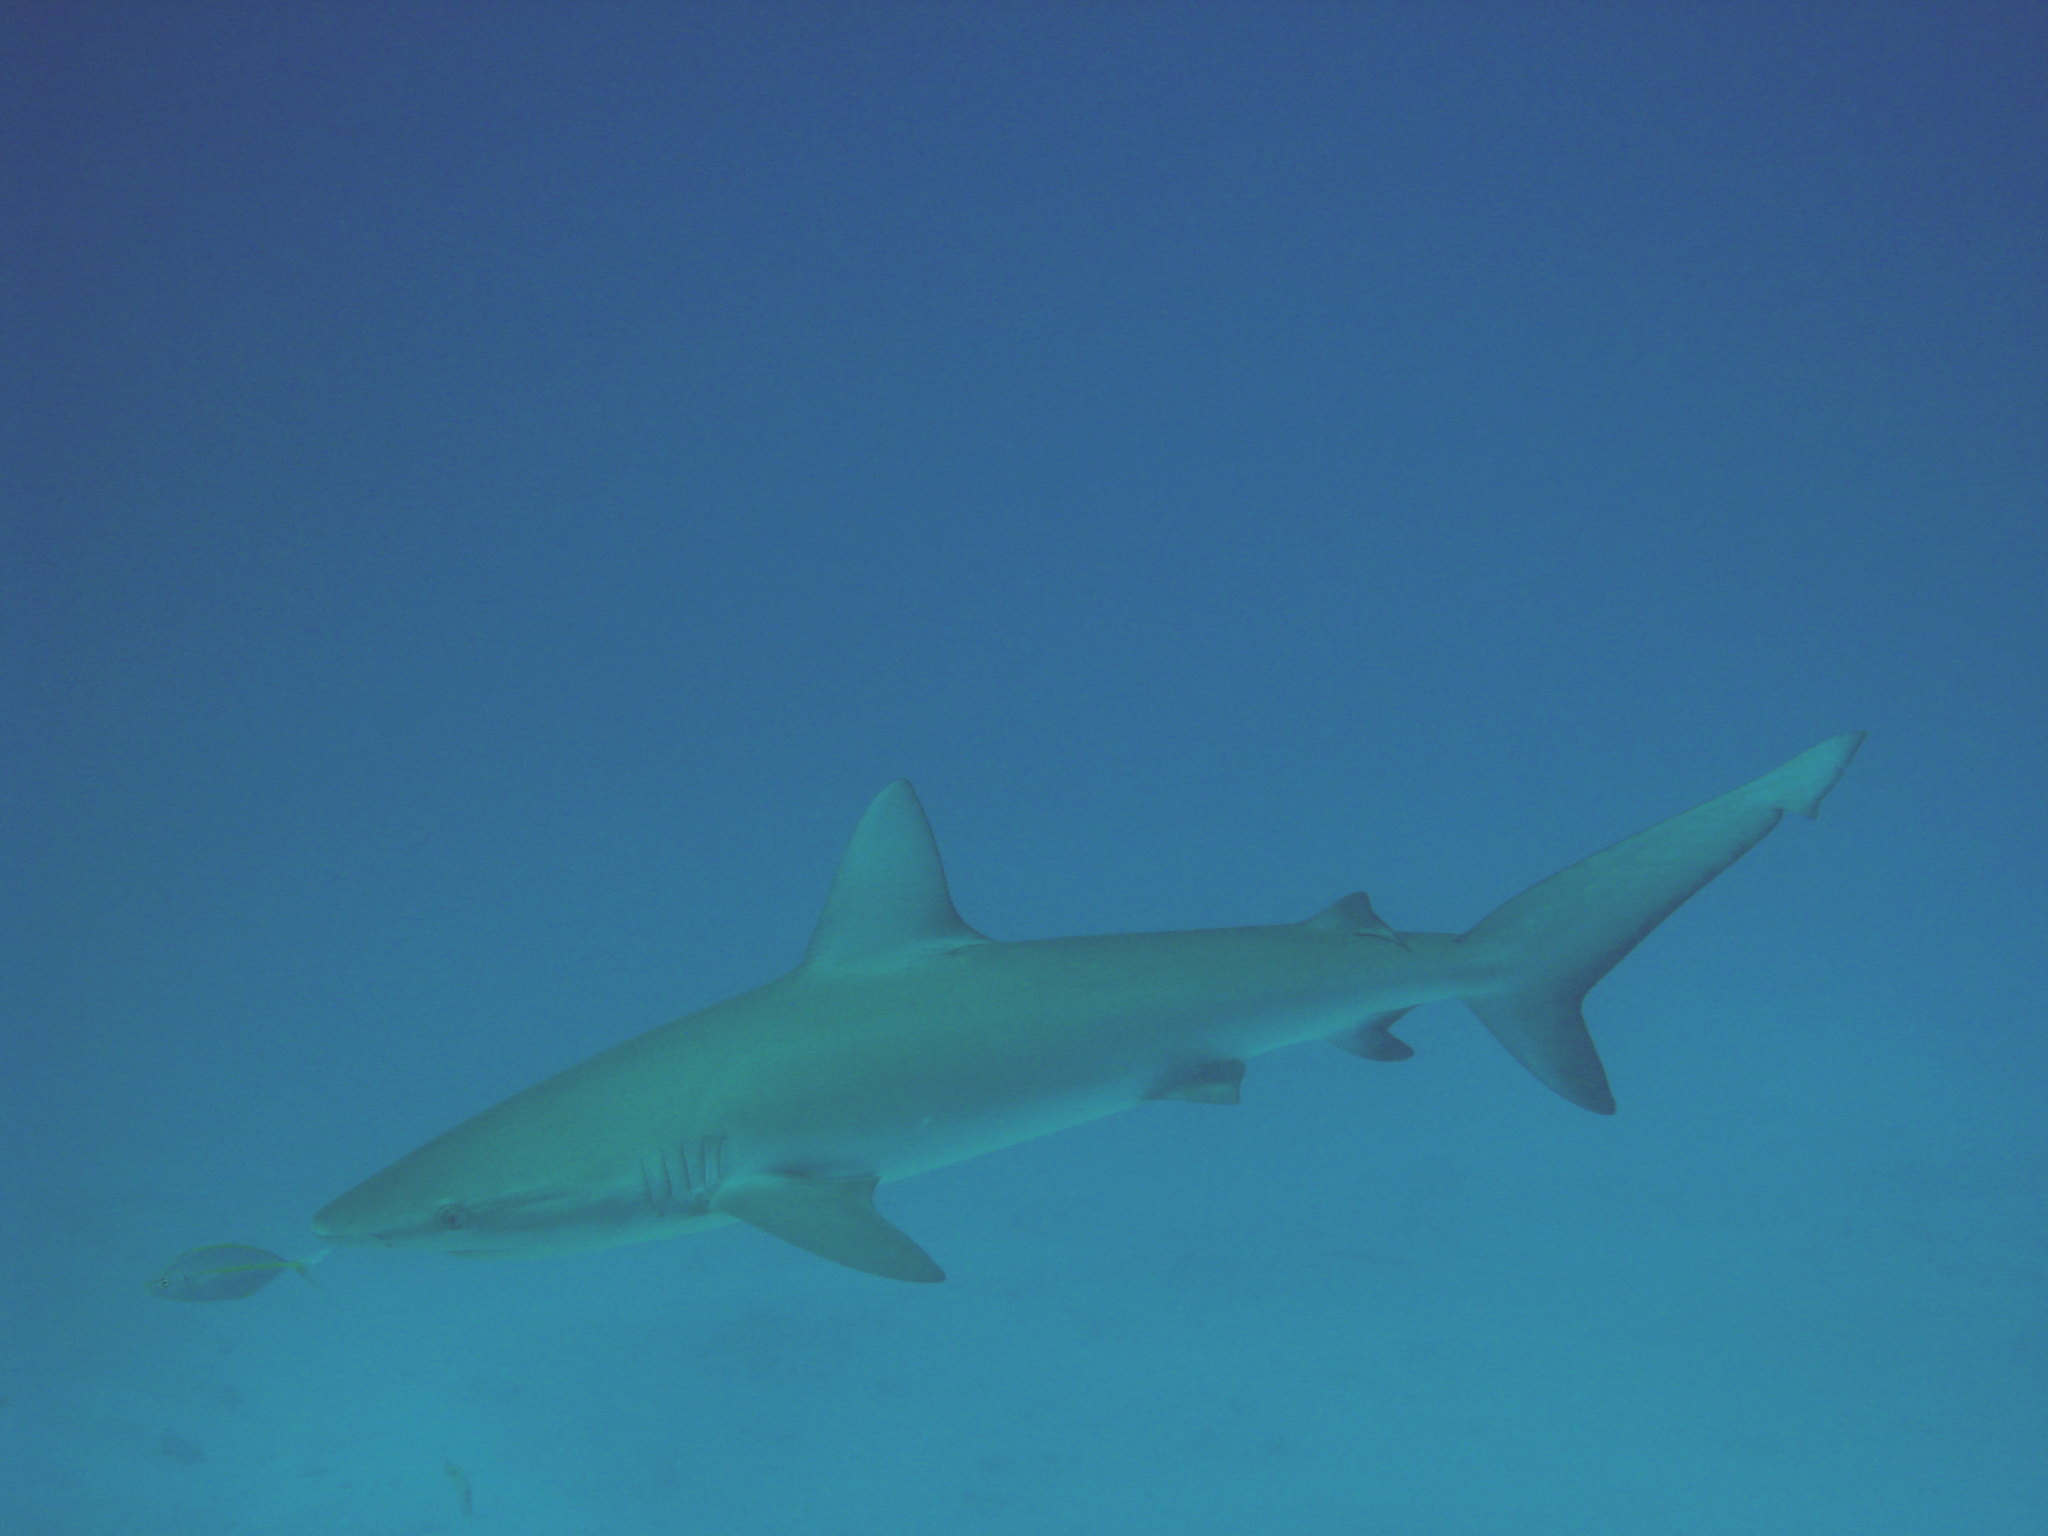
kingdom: Animalia
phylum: Chordata
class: Elasmobranchii
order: Carcharhiniformes
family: Carcharhinidae
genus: Carcharhinus
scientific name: Carcharhinus galapagensis
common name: Galapagos shark
